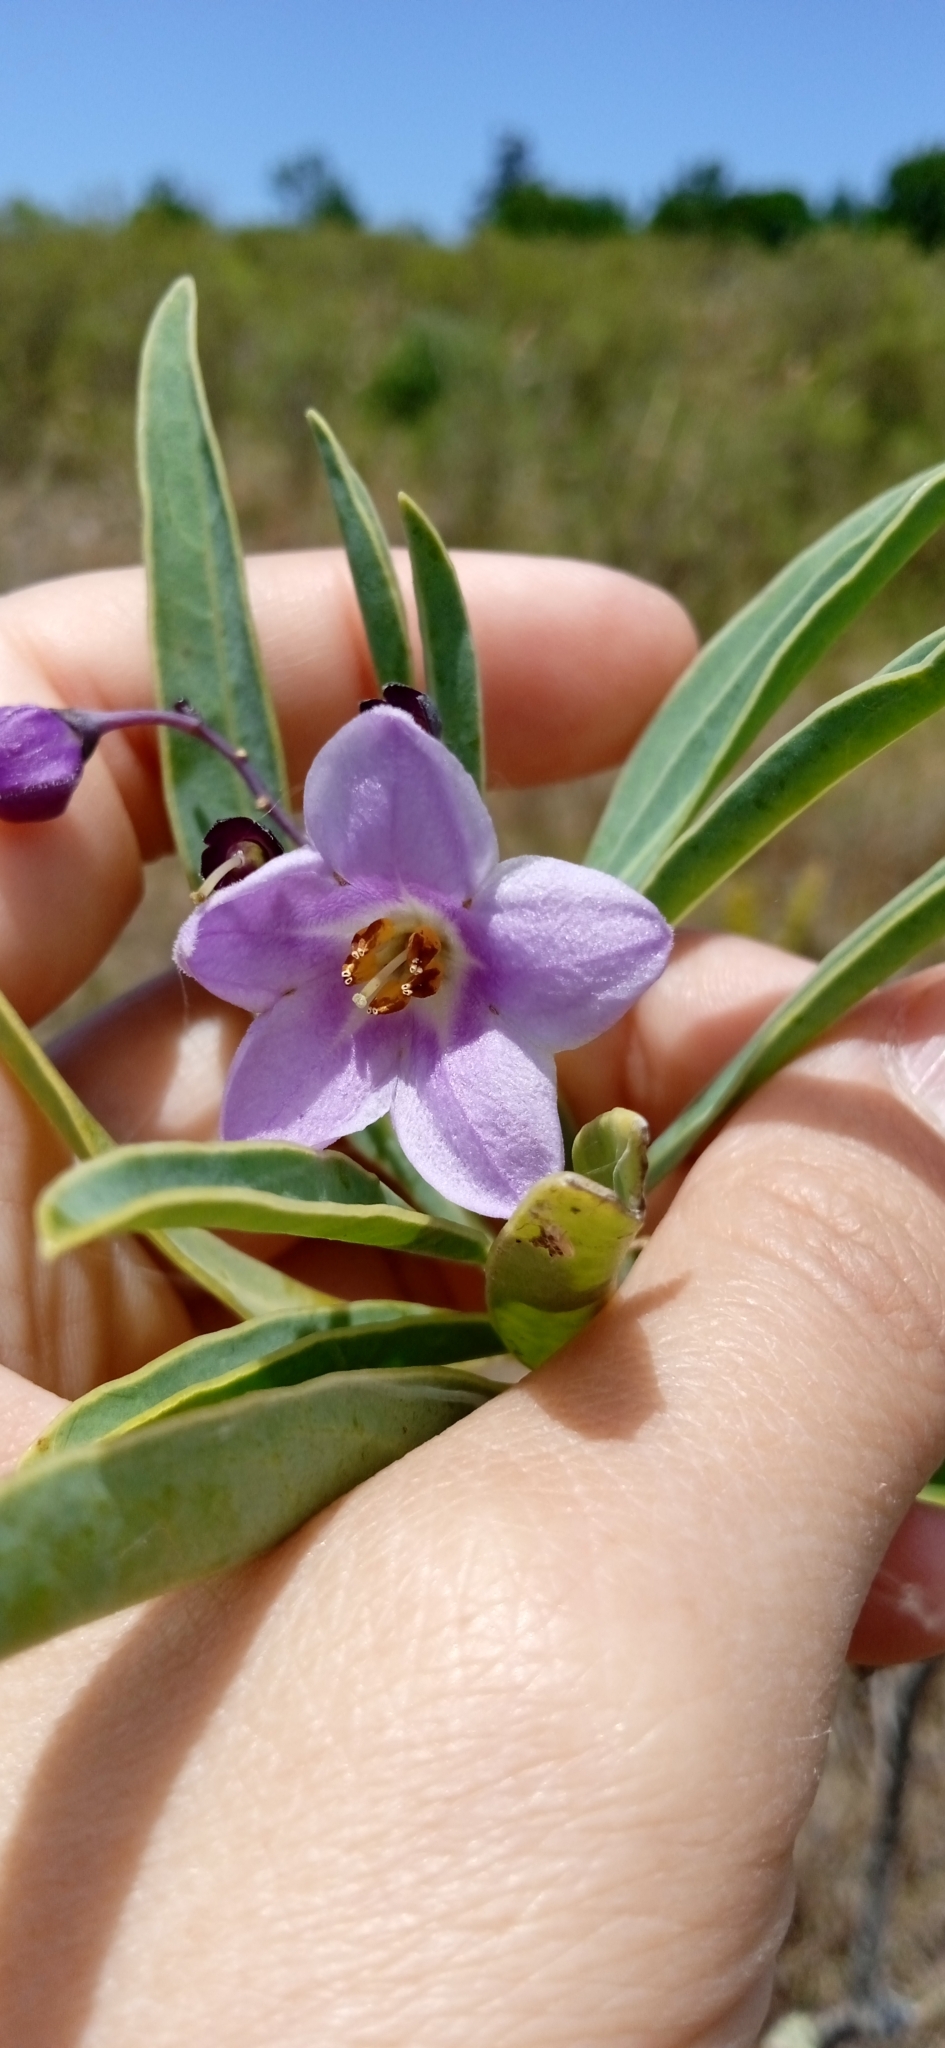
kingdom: Plantae
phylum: Tracheophyta
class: Magnoliopsida
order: Solanales
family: Solanaceae
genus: Solanum
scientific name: Solanum glaucophyllum
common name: Waxyleaf nightshade
